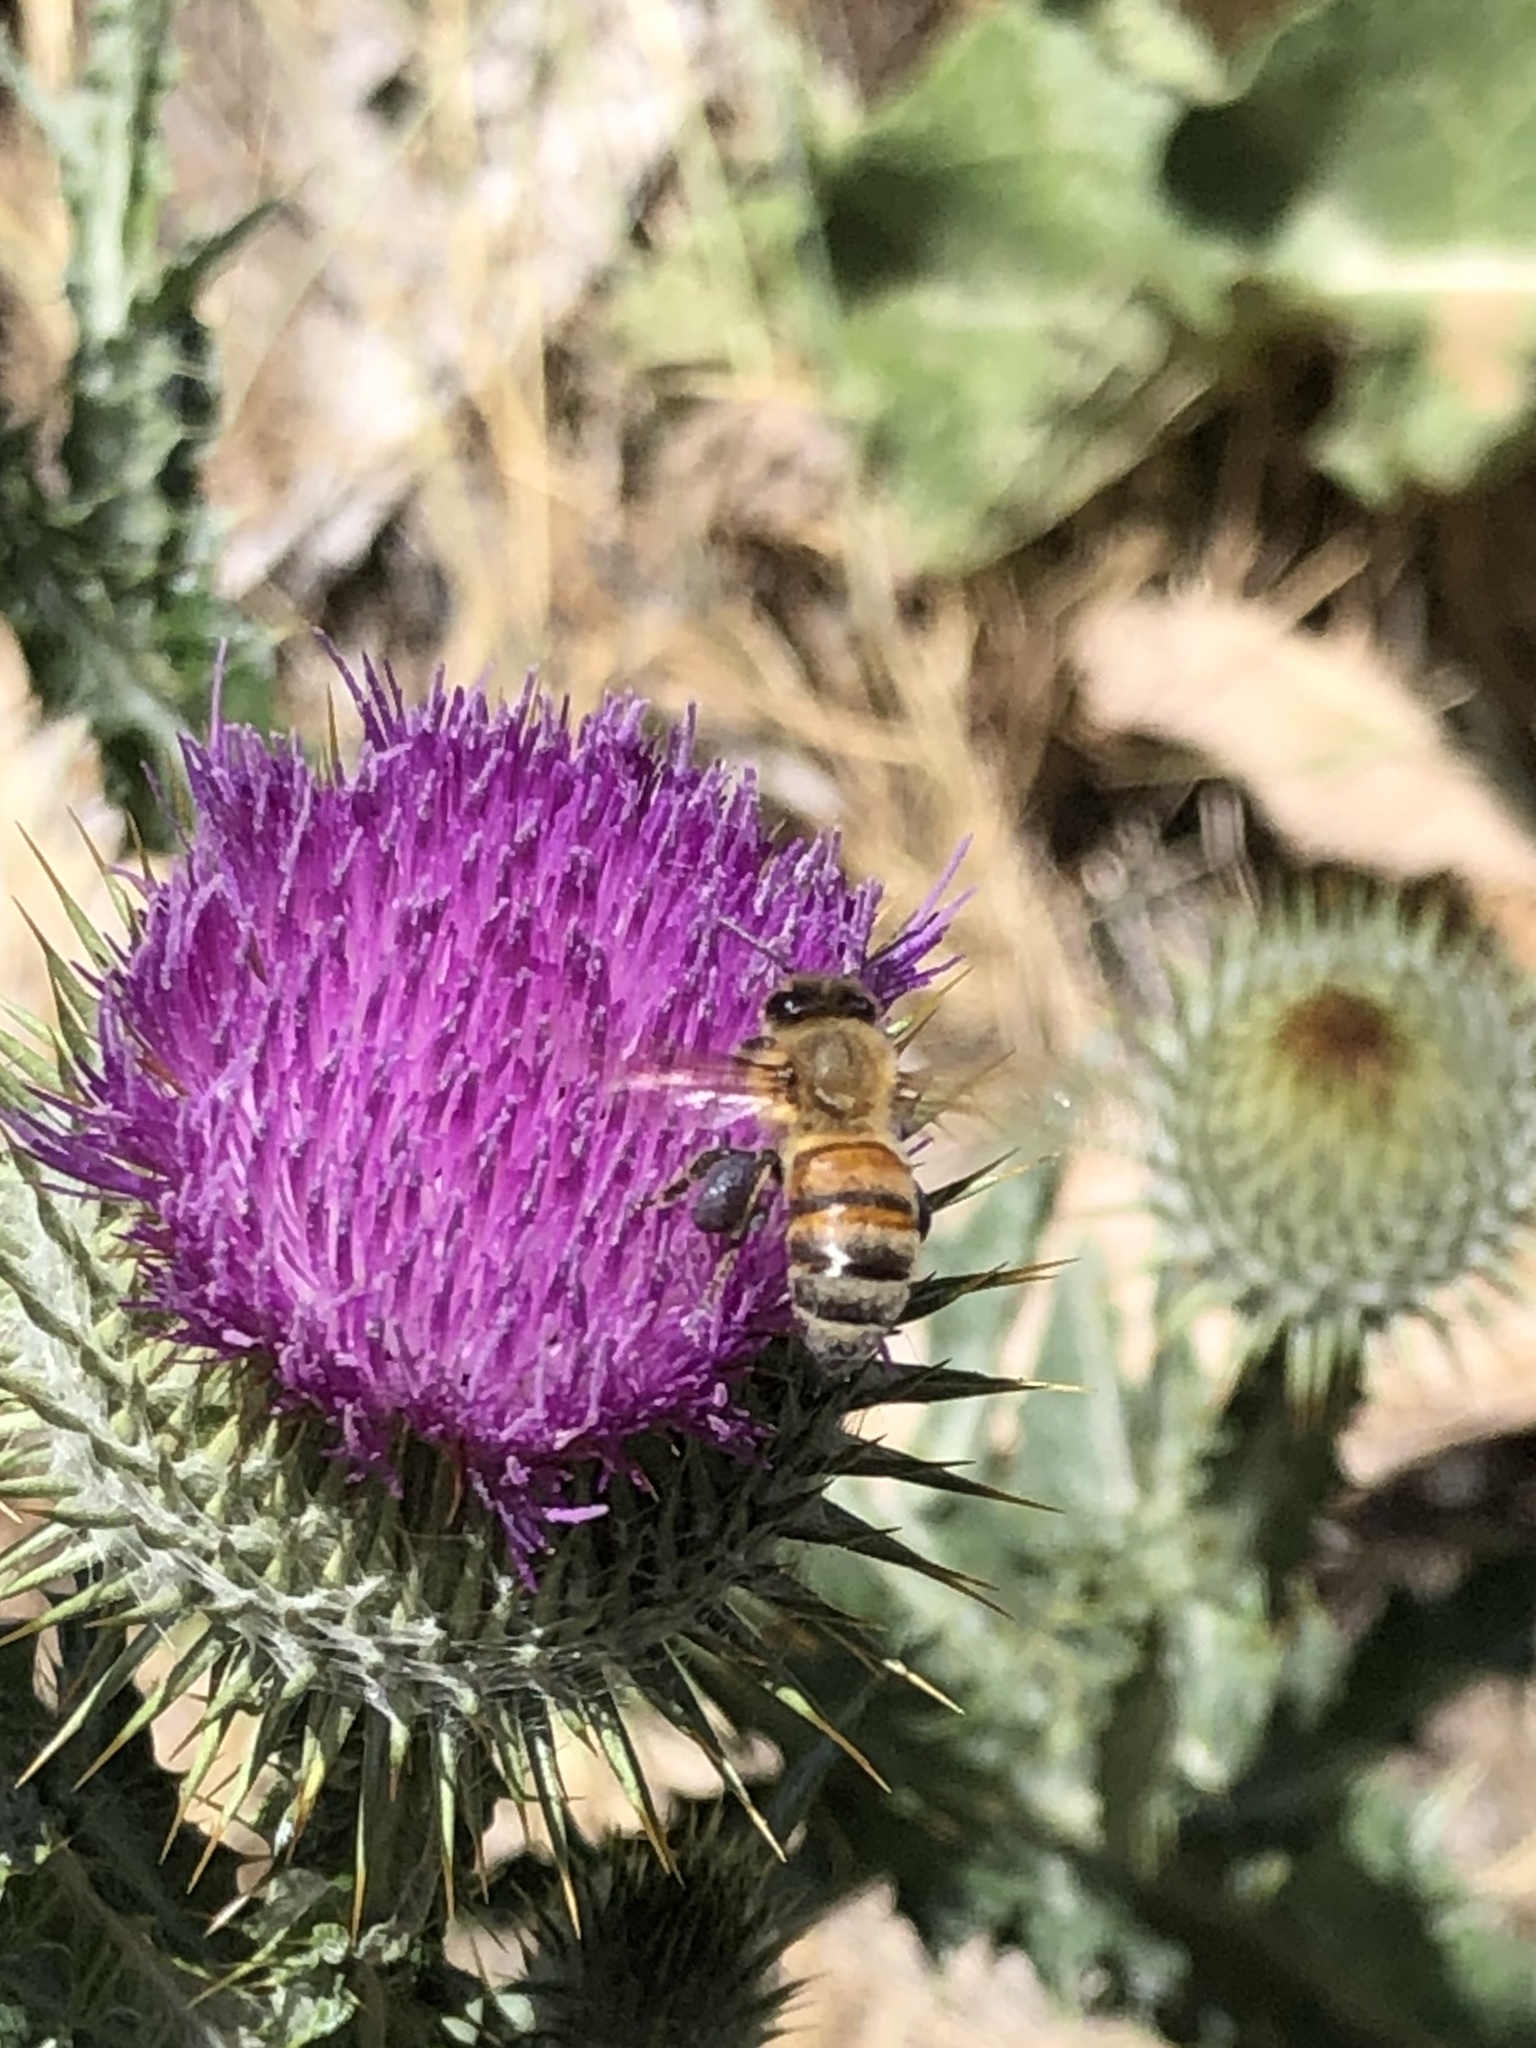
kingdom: Animalia
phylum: Arthropoda
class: Insecta
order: Hymenoptera
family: Apidae
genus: Apis
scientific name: Apis mellifera
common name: Honey bee
